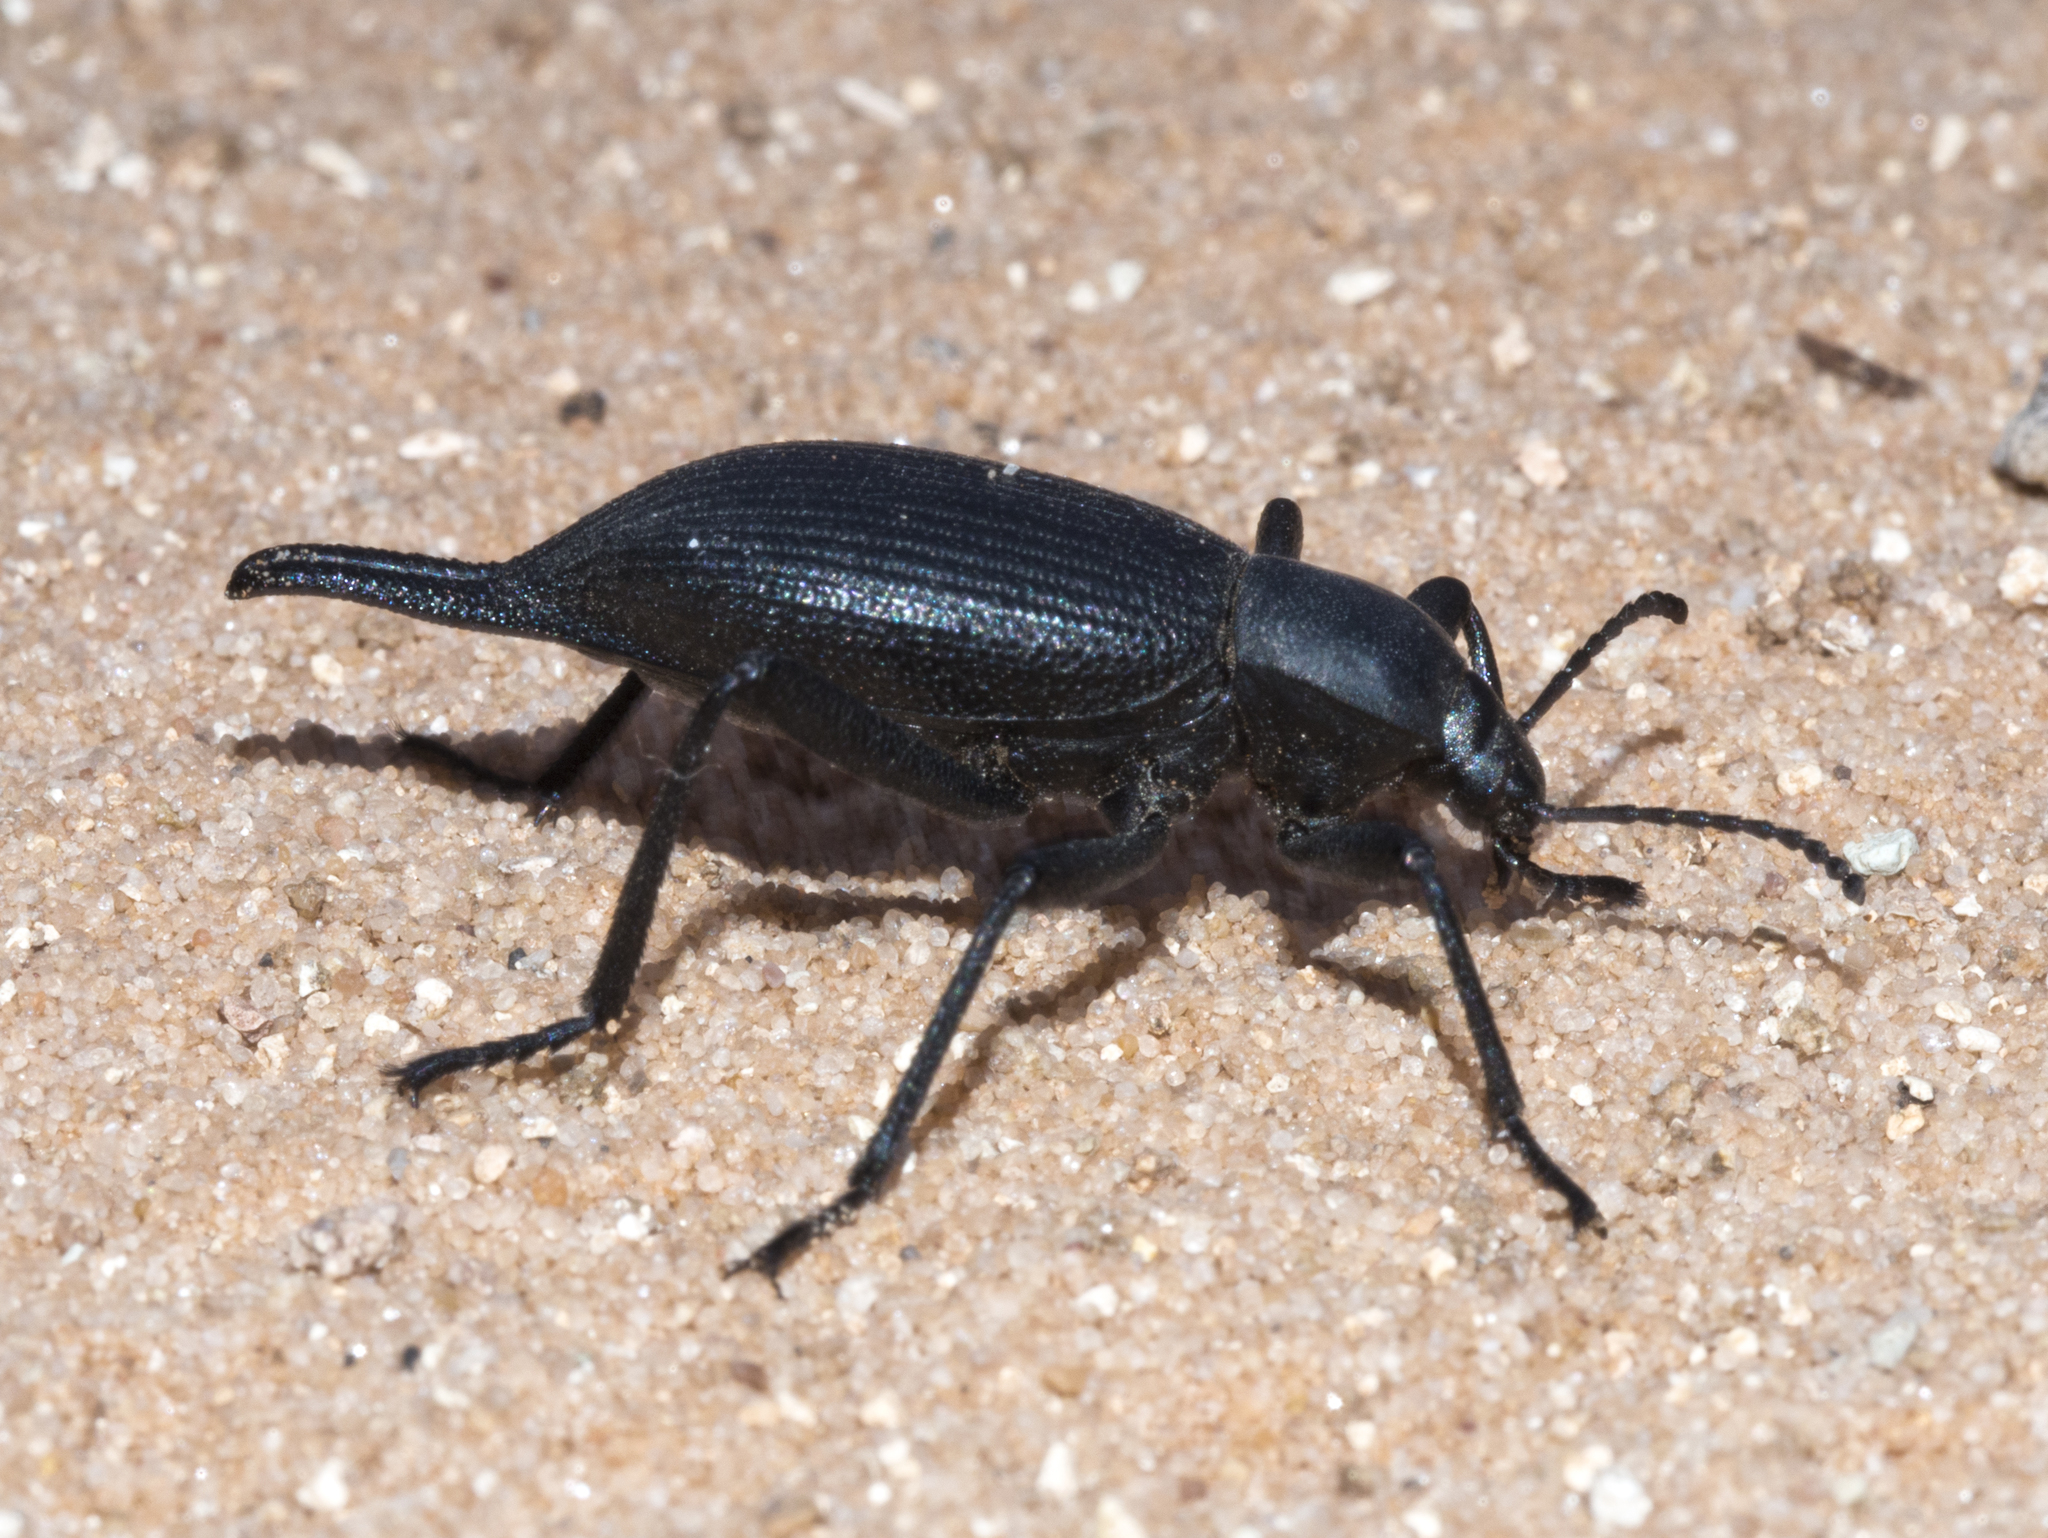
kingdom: Animalia
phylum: Arthropoda
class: Insecta
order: Coleoptera
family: Tenebrionidae
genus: Eleodes
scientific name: Eleodes caudifera
